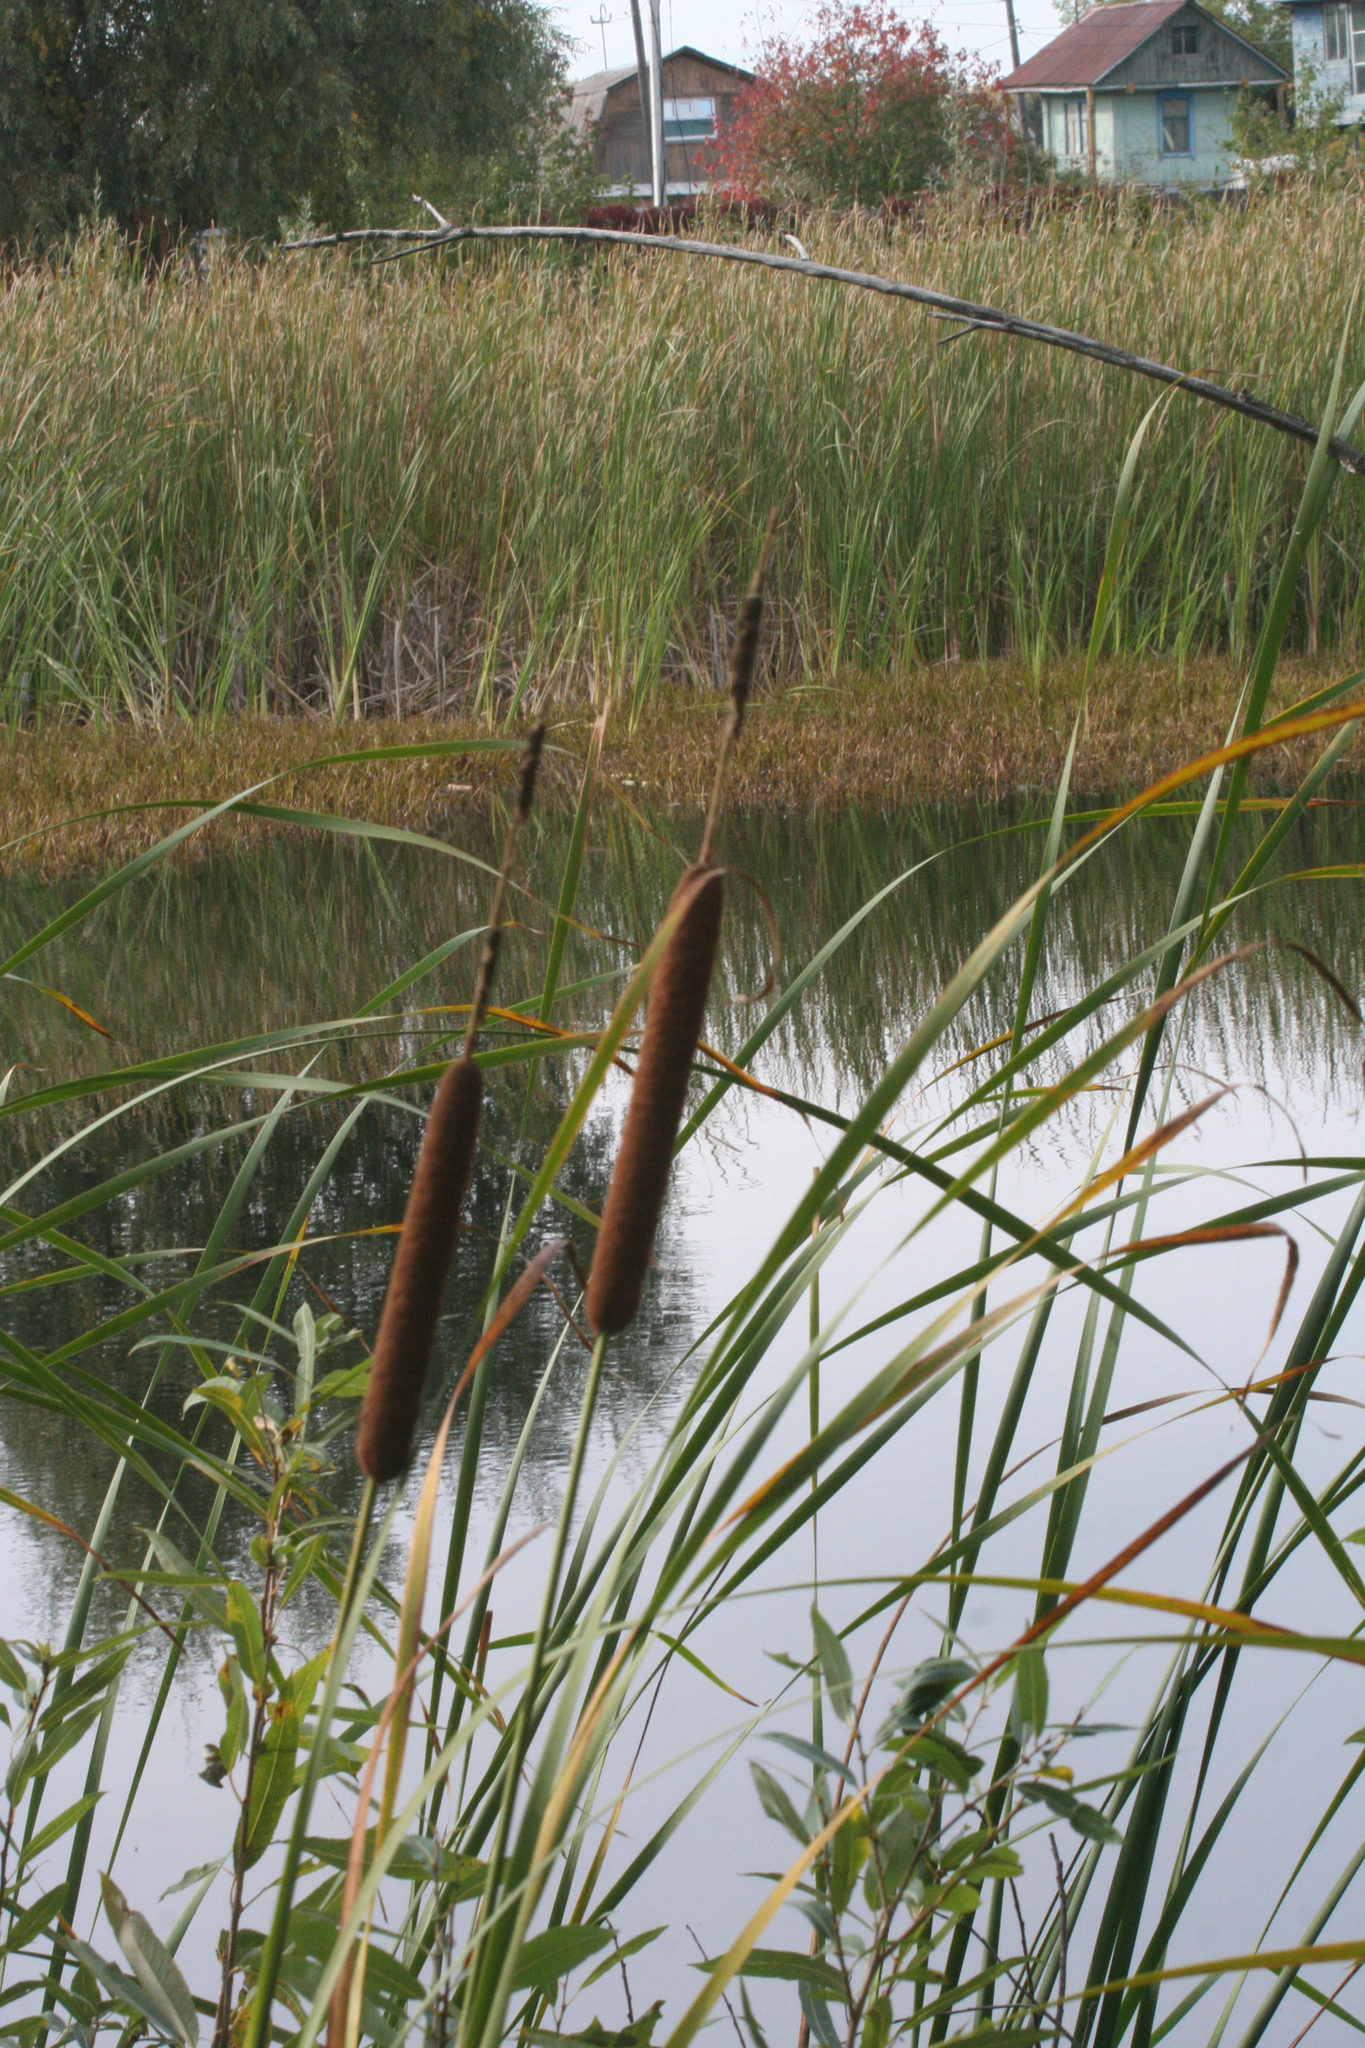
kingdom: Plantae
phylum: Tracheophyta
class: Liliopsida
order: Poales
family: Typhaceae
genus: Typha
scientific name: Typha angustifolia
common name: Lesser bulrush
